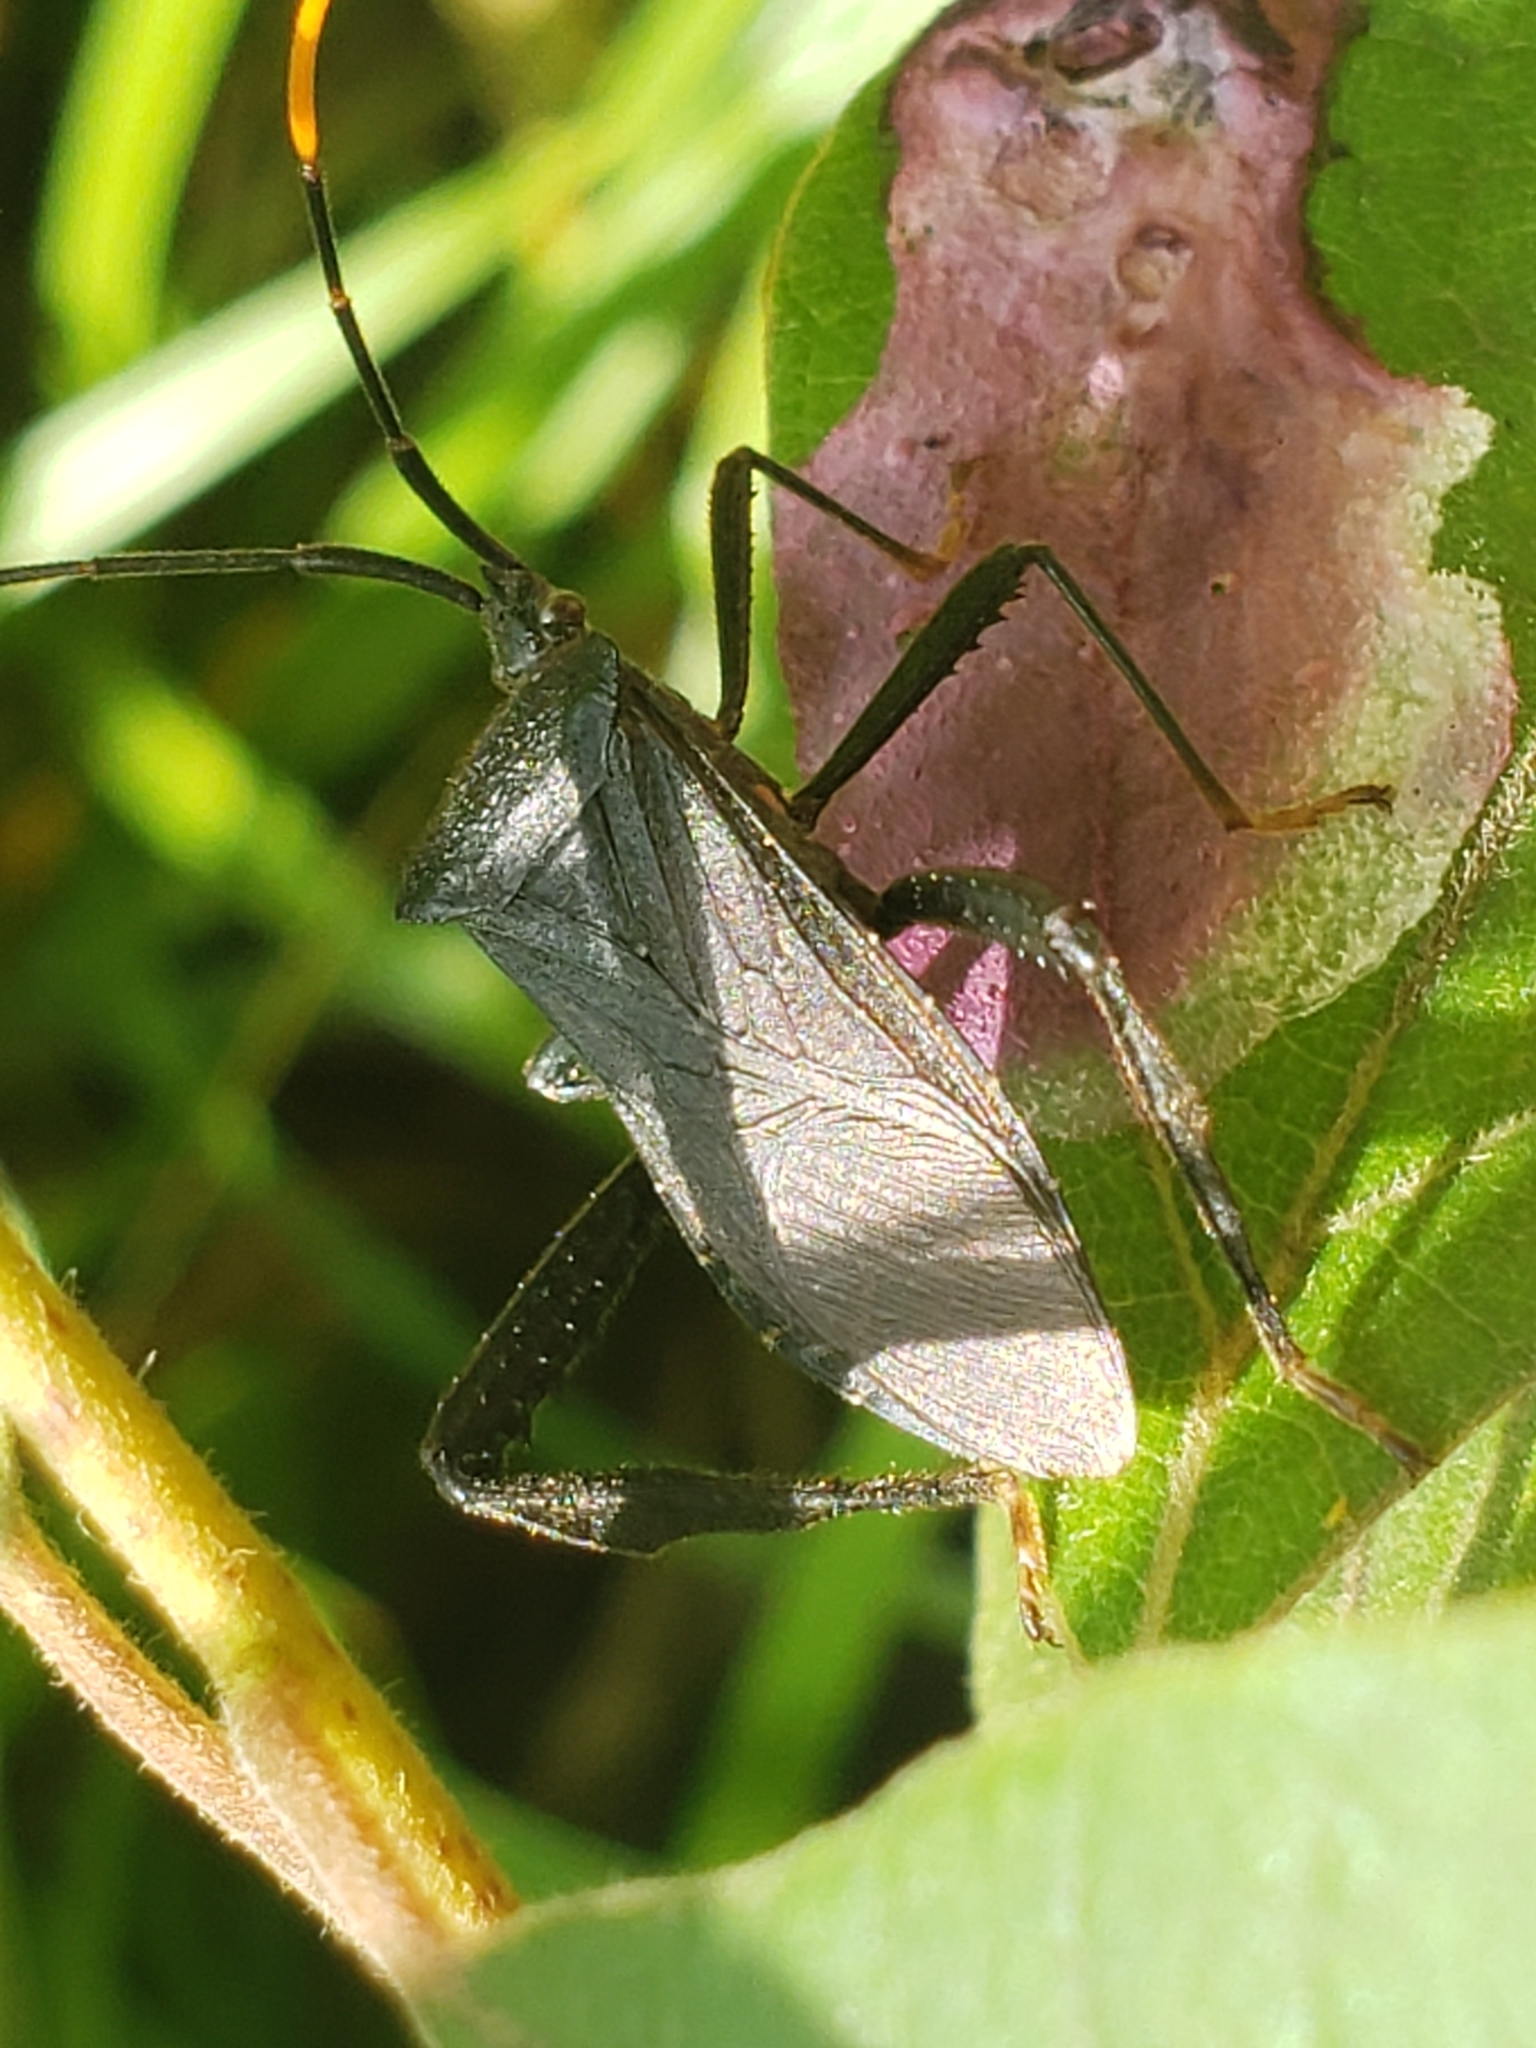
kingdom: Animalia
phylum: Arthropoda
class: Insecta
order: Hemiptera
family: Coreidae
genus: Acanthocephala
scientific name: Acanthocephala terminalis
